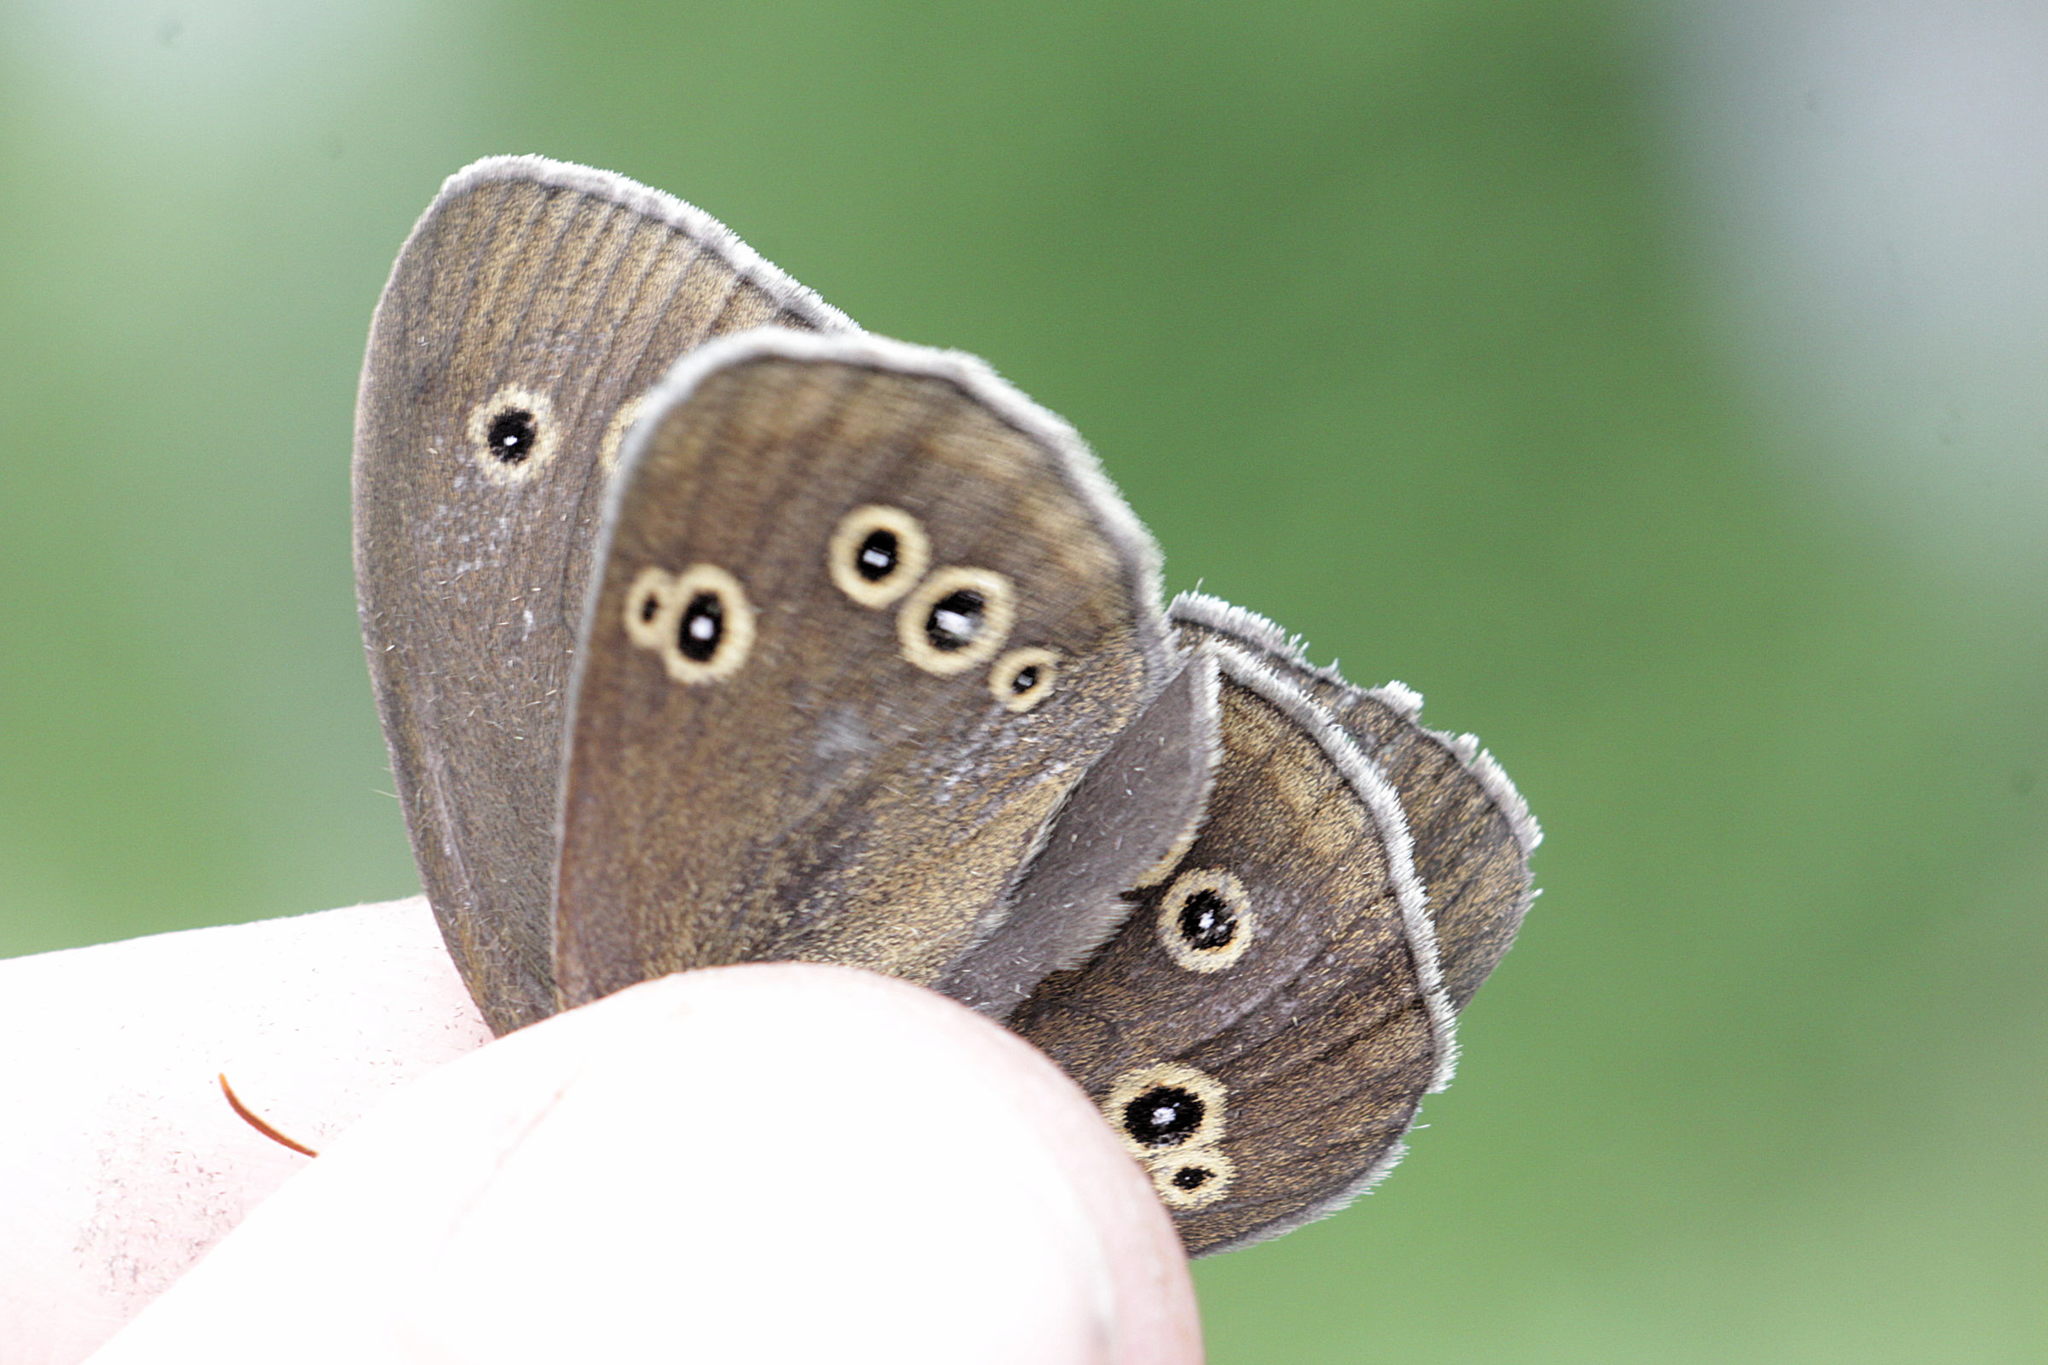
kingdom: Animalia
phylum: Arthropoda
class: Insecta
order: Lepidoptera
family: Nymphalidae
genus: Aphantopus
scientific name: Aphantopus hyperantus
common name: Ringlet
